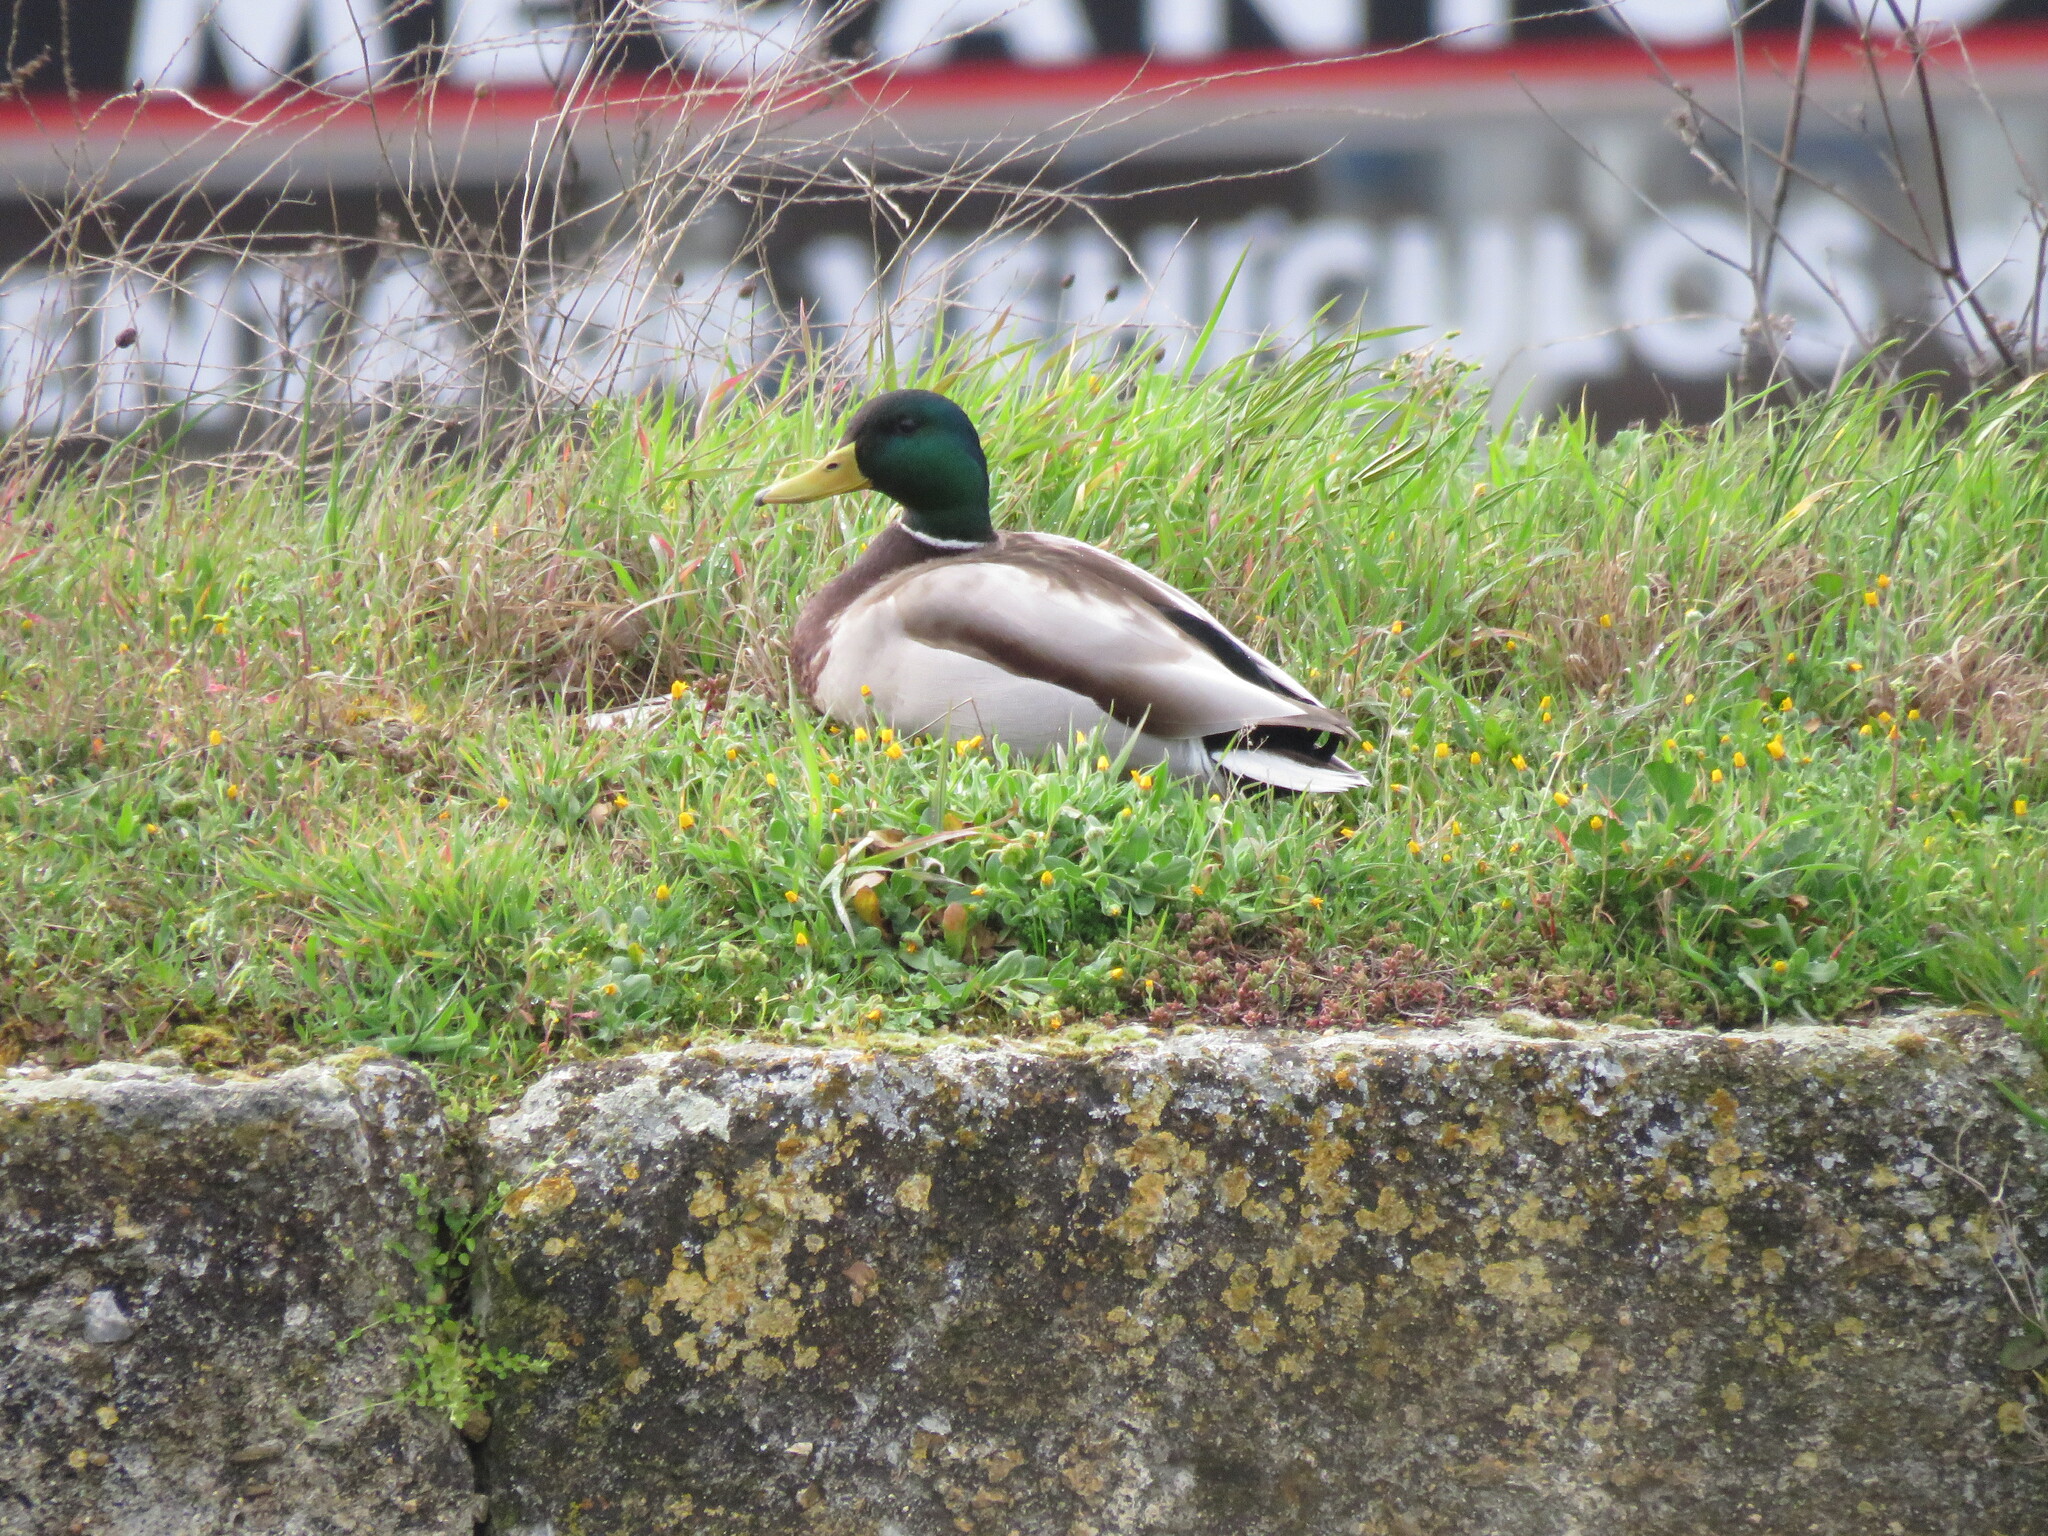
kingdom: Animalia
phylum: Chordata
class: Aves
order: Anseriformes
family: Anatidae
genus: Anas
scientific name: Anas platyrhynchos
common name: Mallard
